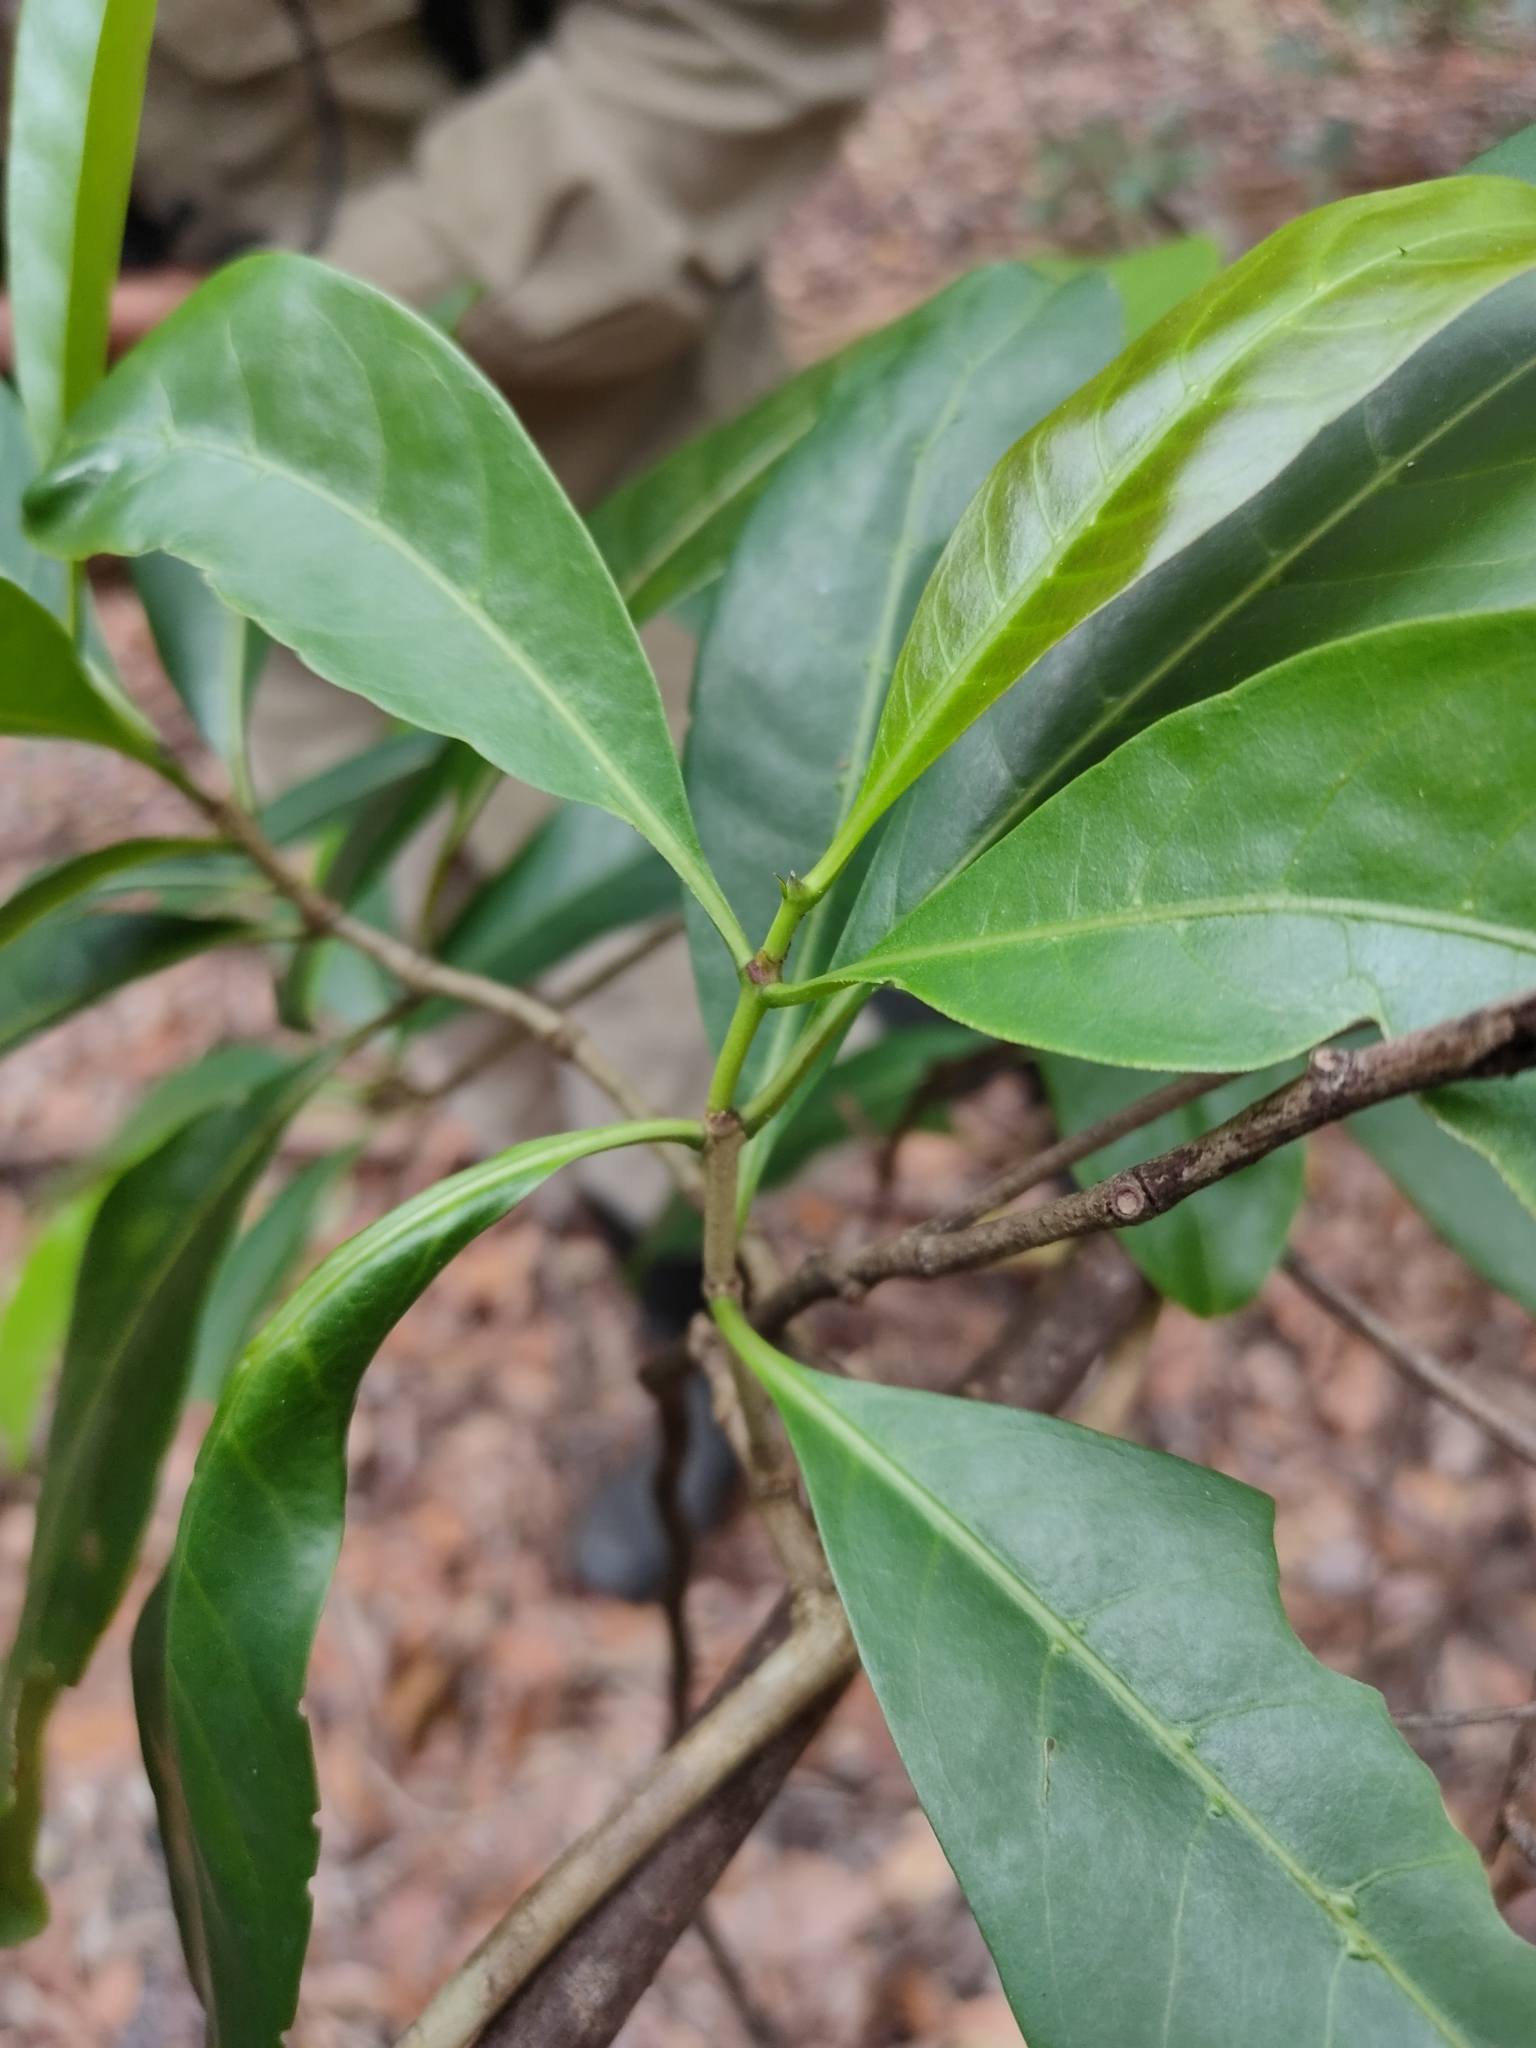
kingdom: Plantae
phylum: Tracheophyta
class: Magnoliopsida
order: Gentianales
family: Rubiaceae
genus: Coelospermum
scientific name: Coelospermum paniculatum
